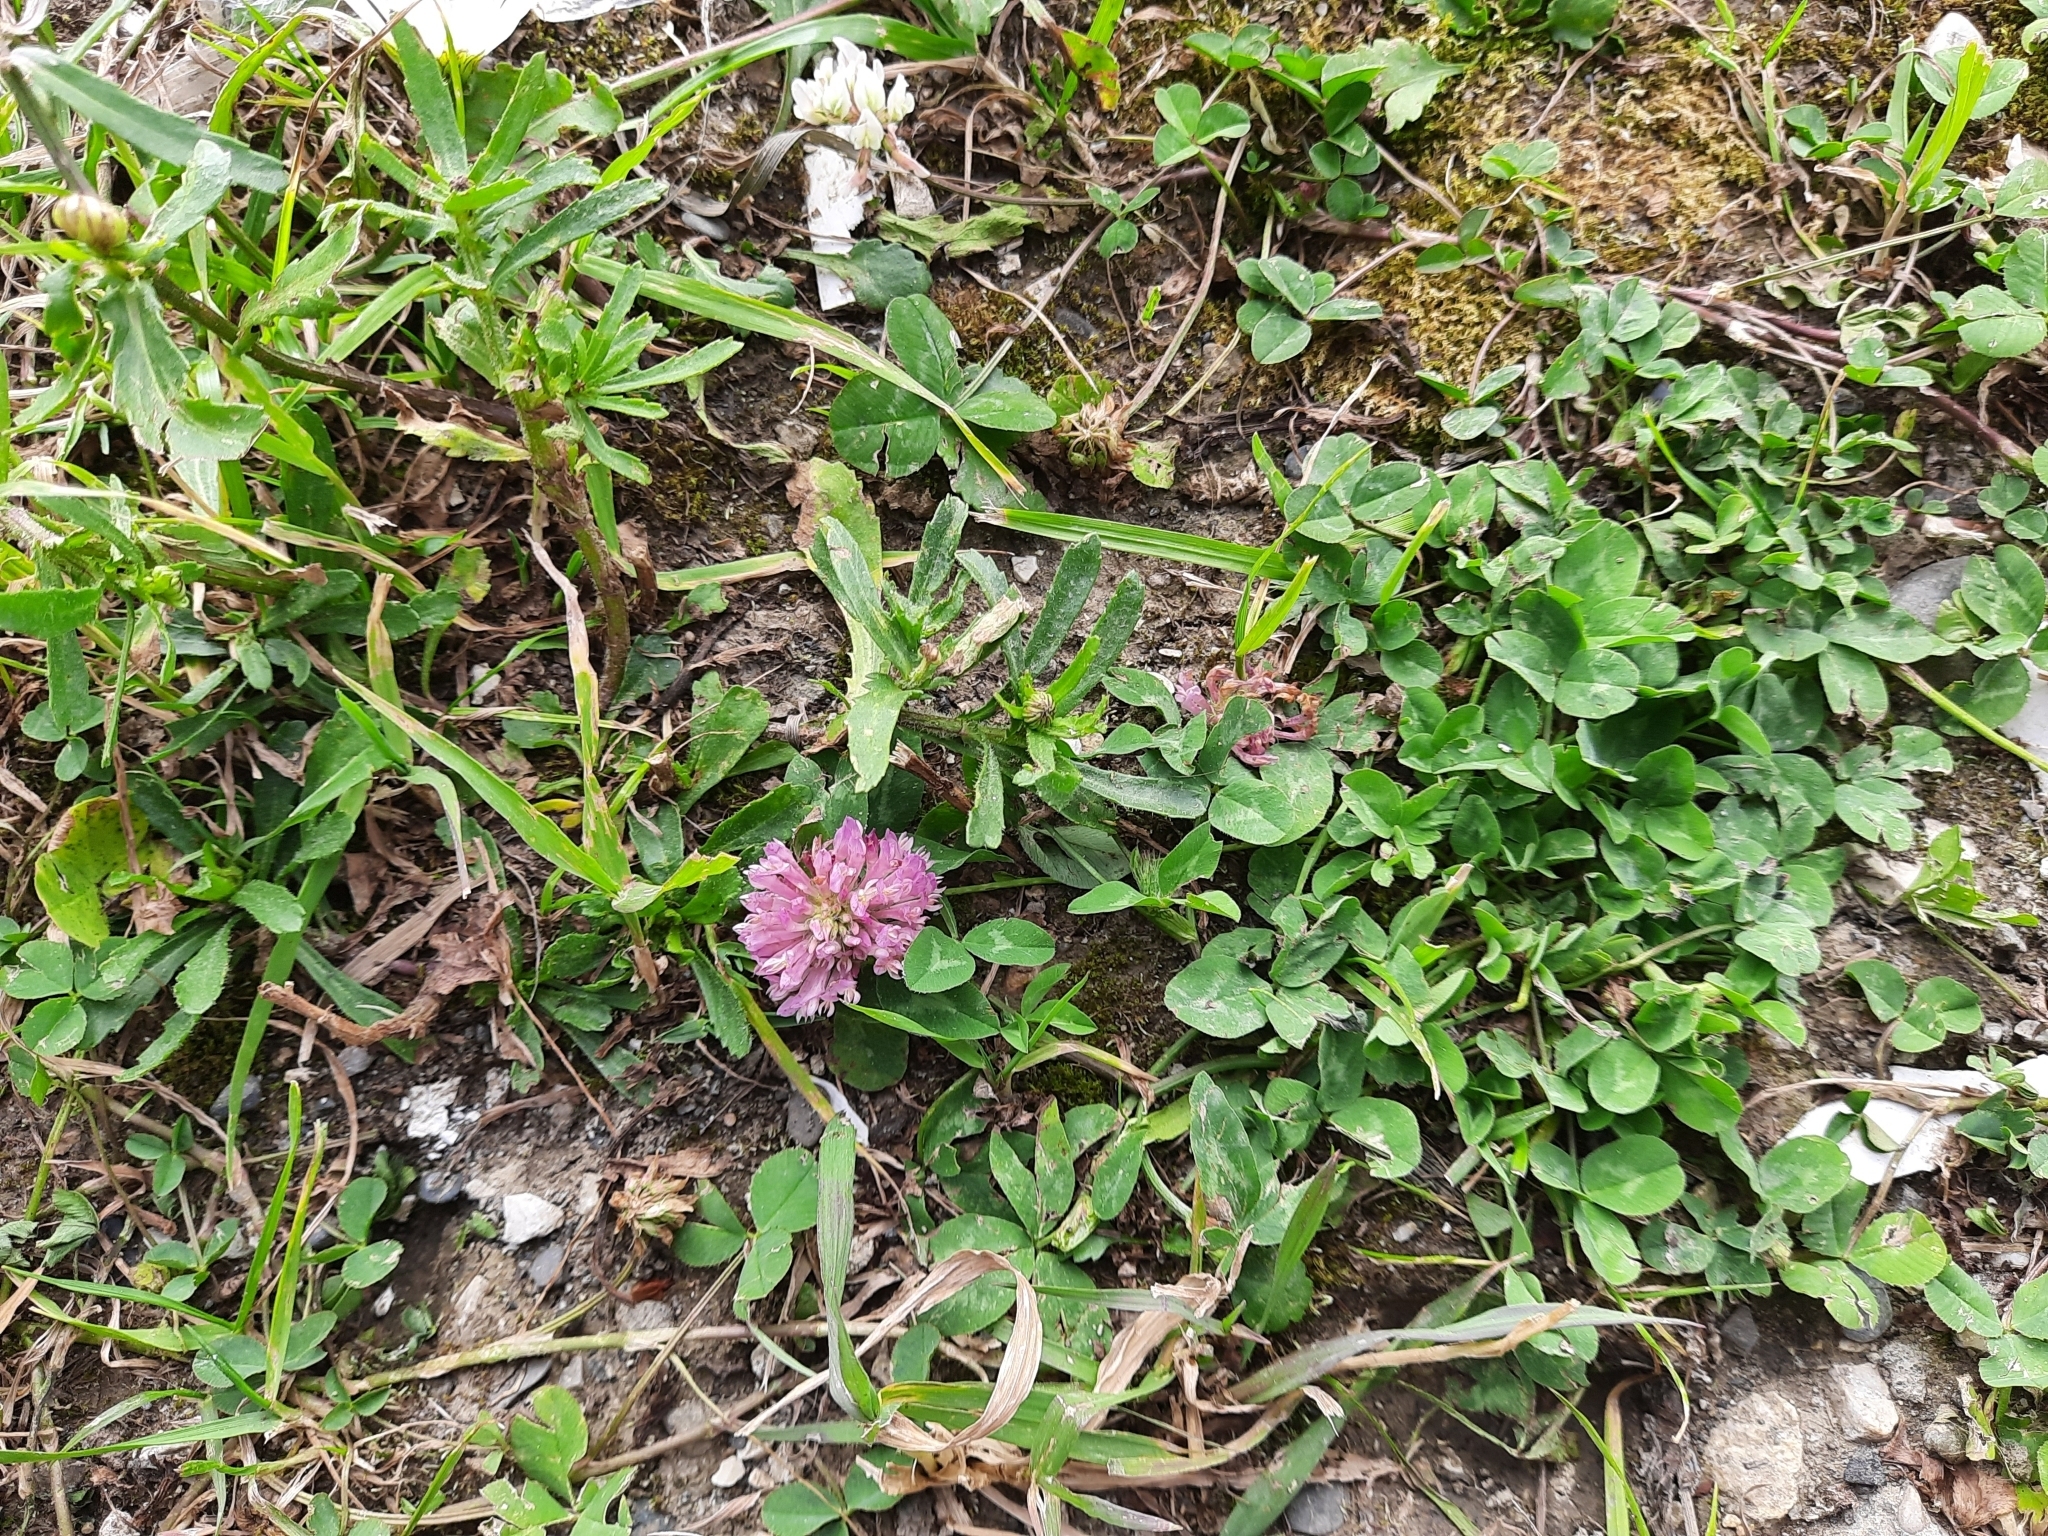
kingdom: Plantae
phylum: Tracheophyta
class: Magnoliopsida
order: Fabales
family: Fabaceae
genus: Trifolium
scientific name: Trifolium pratense
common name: Red clover
